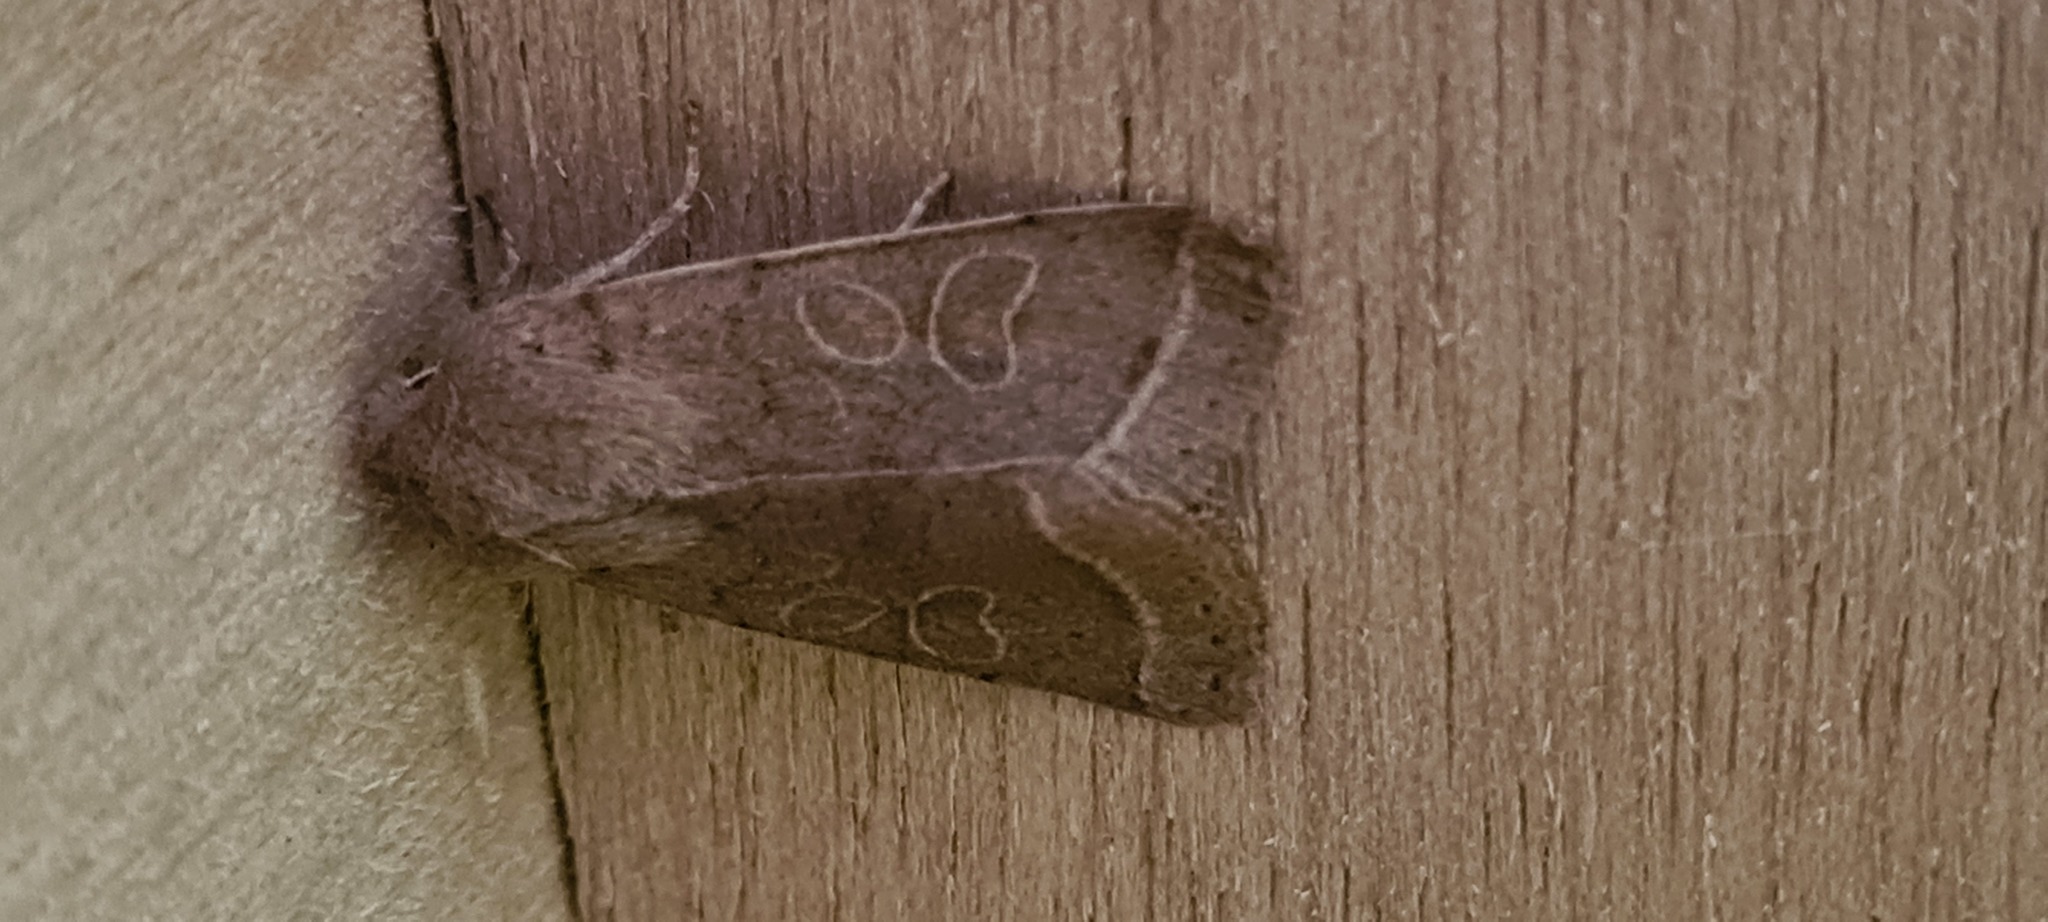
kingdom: Animalia
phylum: Arthropoda
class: Insecta
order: Lepidoptera
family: Noctuidae
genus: Orthosia
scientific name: Orthosia cerasi
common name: Common quaker
